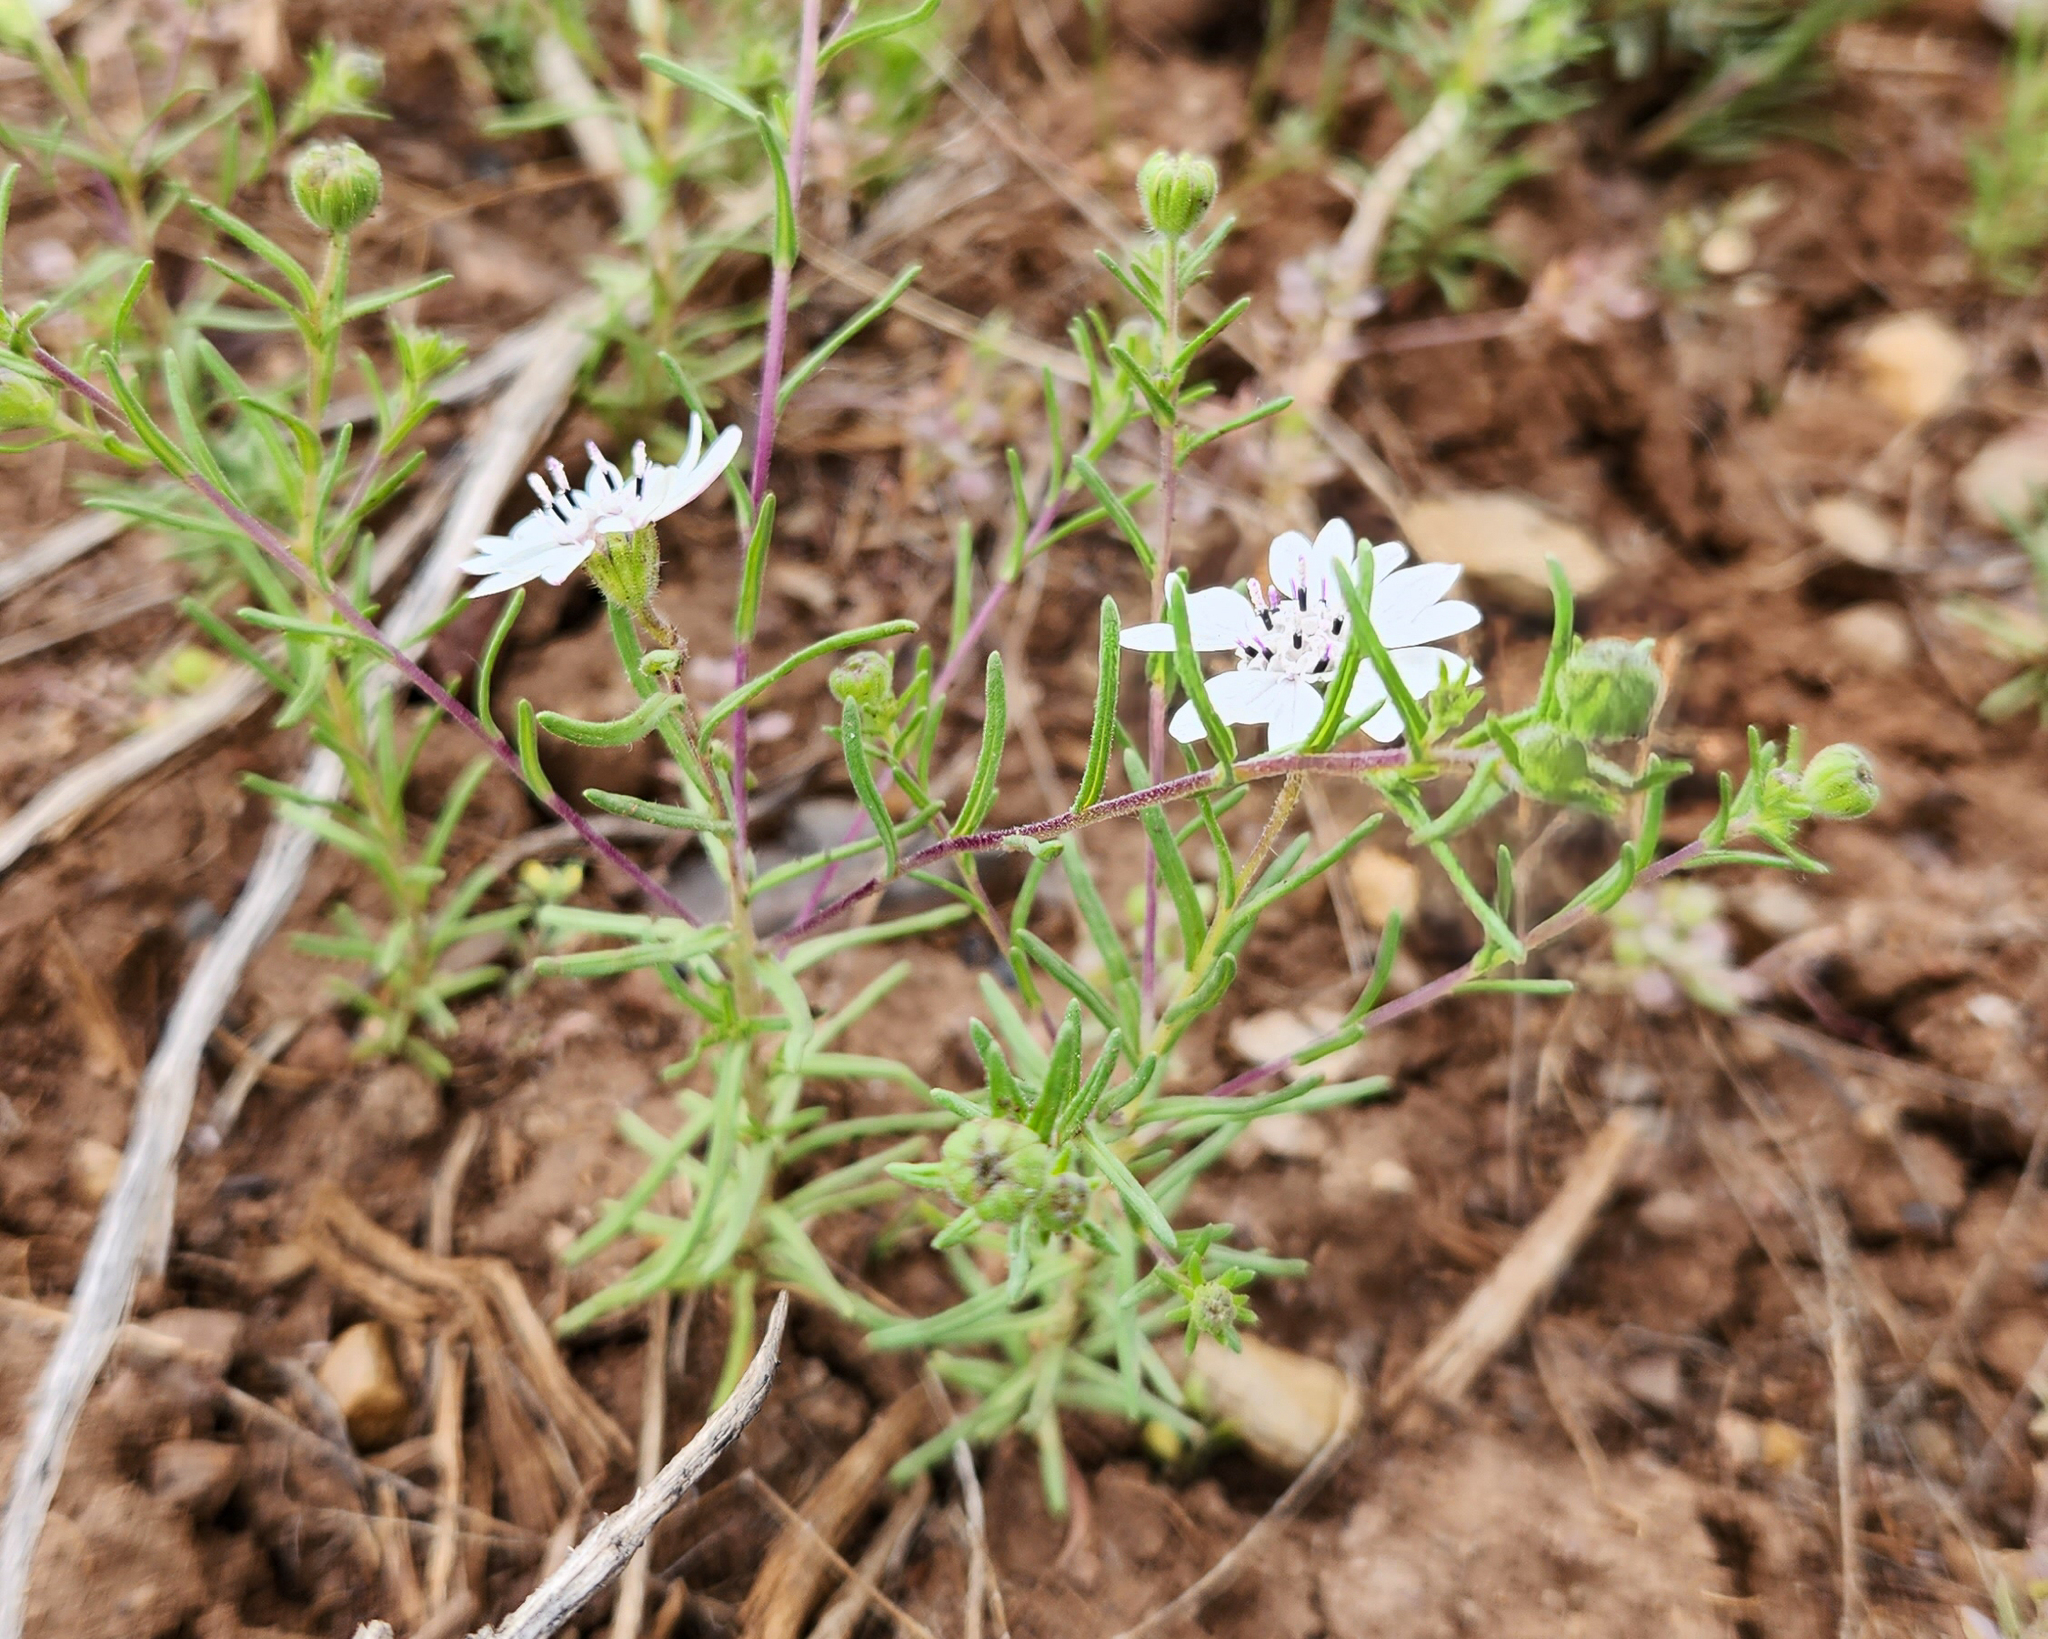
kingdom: Plantae
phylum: Tracheophyta
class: Magnoliopsida
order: Asterales
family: Asteraceae
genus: Blepharipappus
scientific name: Blepharipappus scaber
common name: Rough blepharipappus
